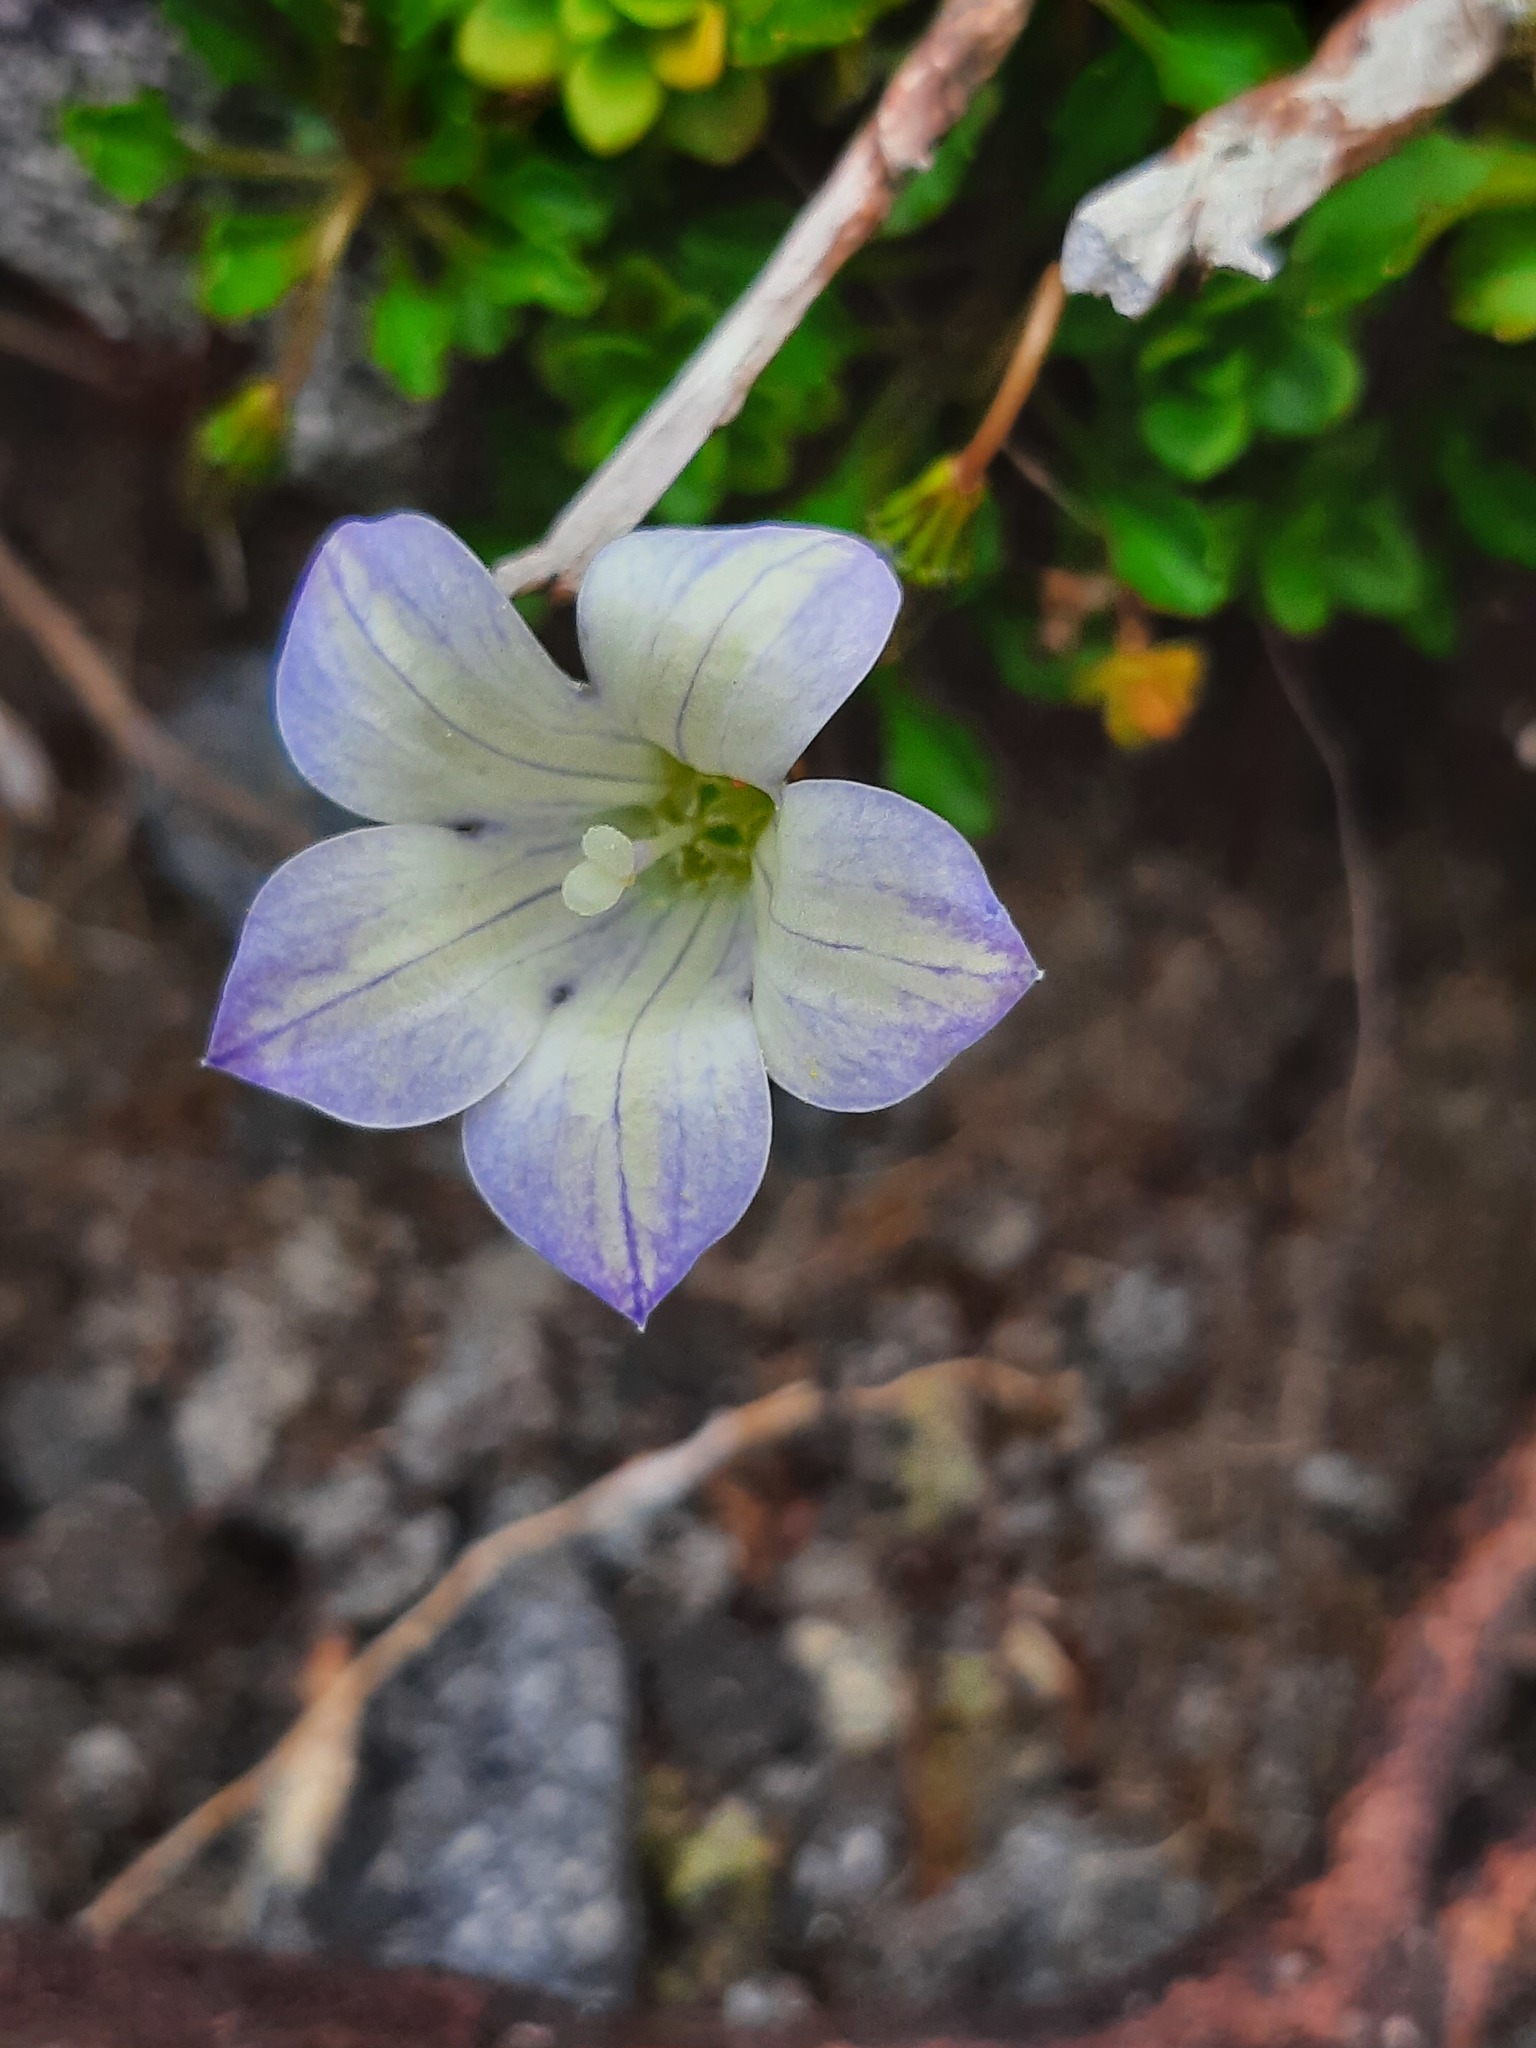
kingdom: Plantae
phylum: Tracheophyta
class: Magnoliopsida
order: Asterales
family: Campanulaceae
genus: Wahlenbergia
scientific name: Wahlenbergia pygmaea
